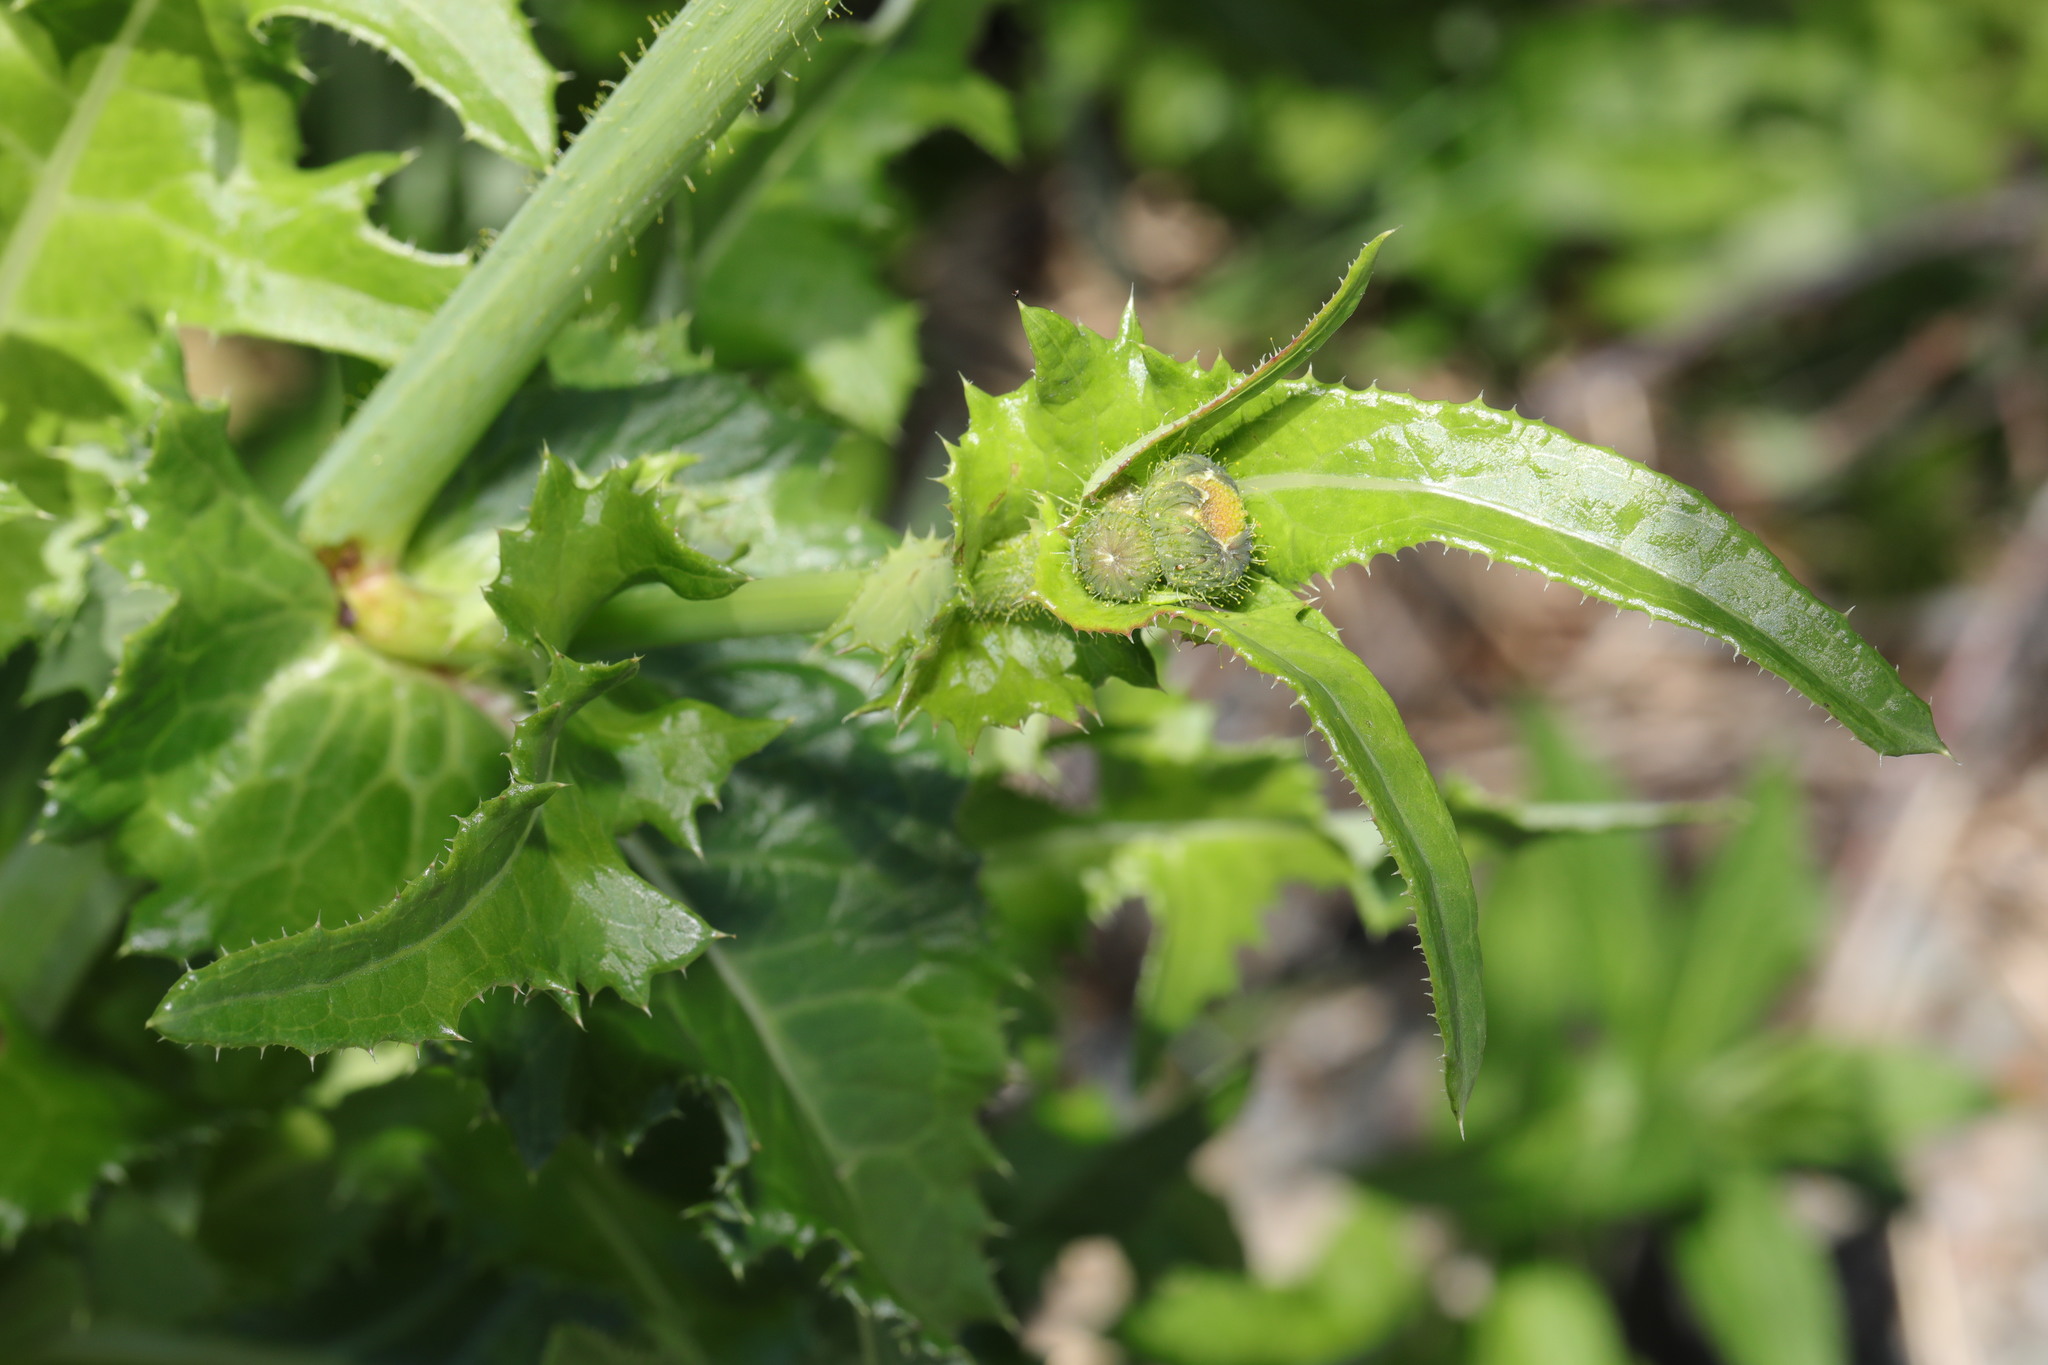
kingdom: Plantae
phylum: Tracheophyta
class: Magnoliopsida
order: Asterales
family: Asteraceae
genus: Sonchus
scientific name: Sonchus arvensis
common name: Perennial sow-thistle
